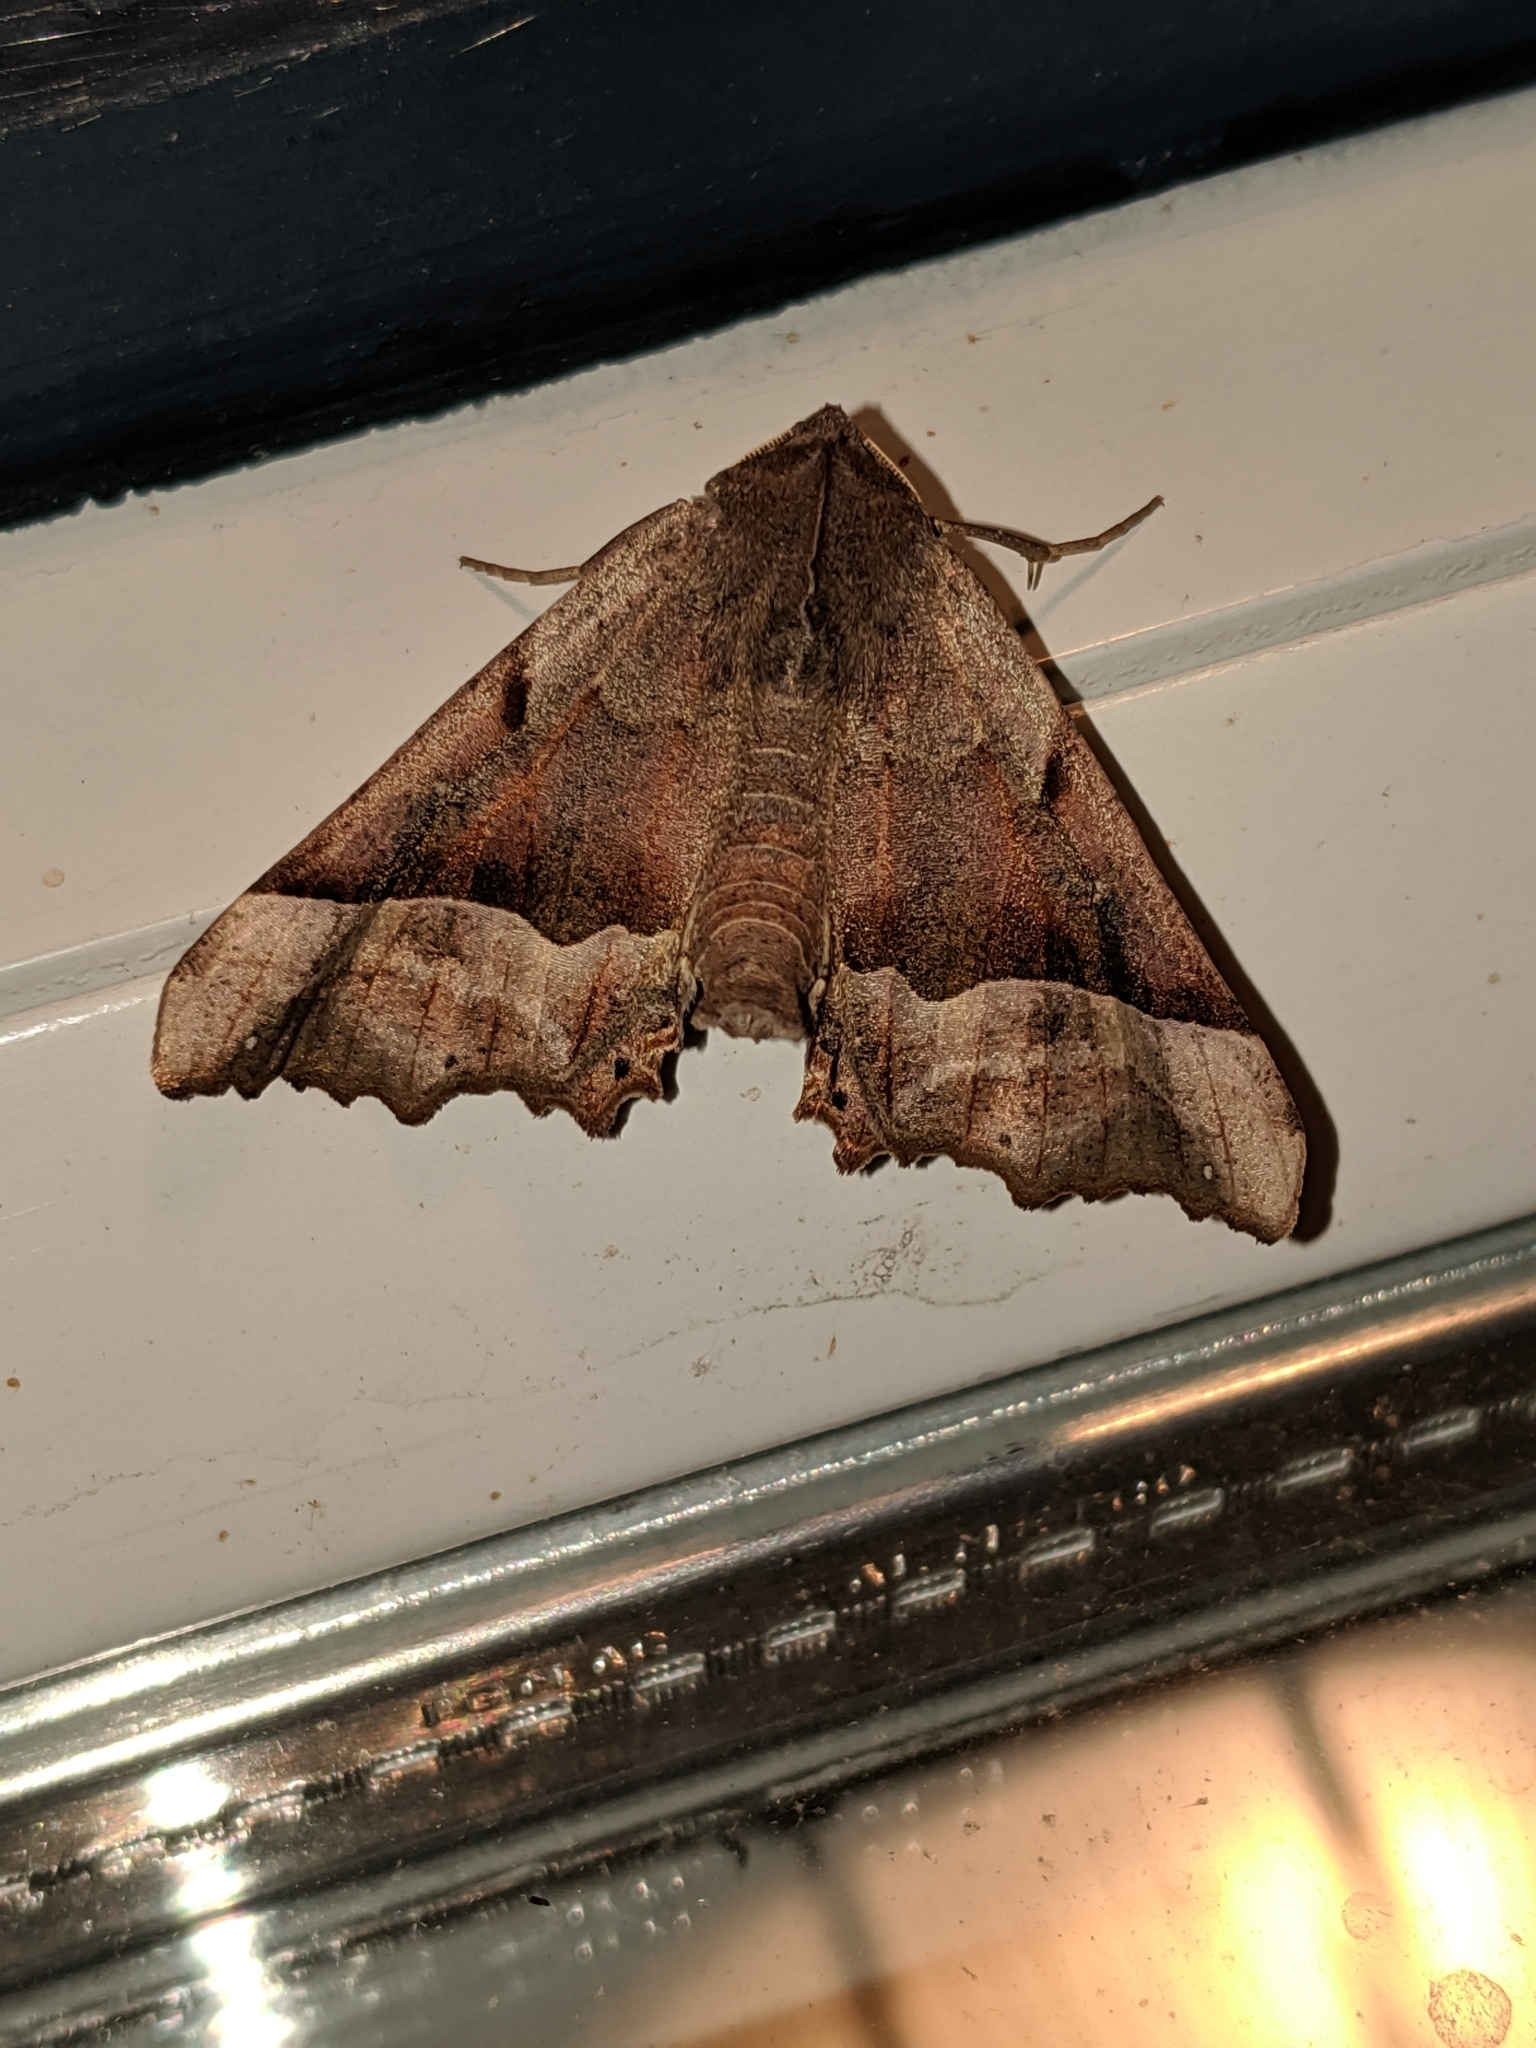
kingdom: Animalia
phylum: Arthropoda
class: Insecta
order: Lepidoptera
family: Geometridae
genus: Pero
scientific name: Pero mizon
